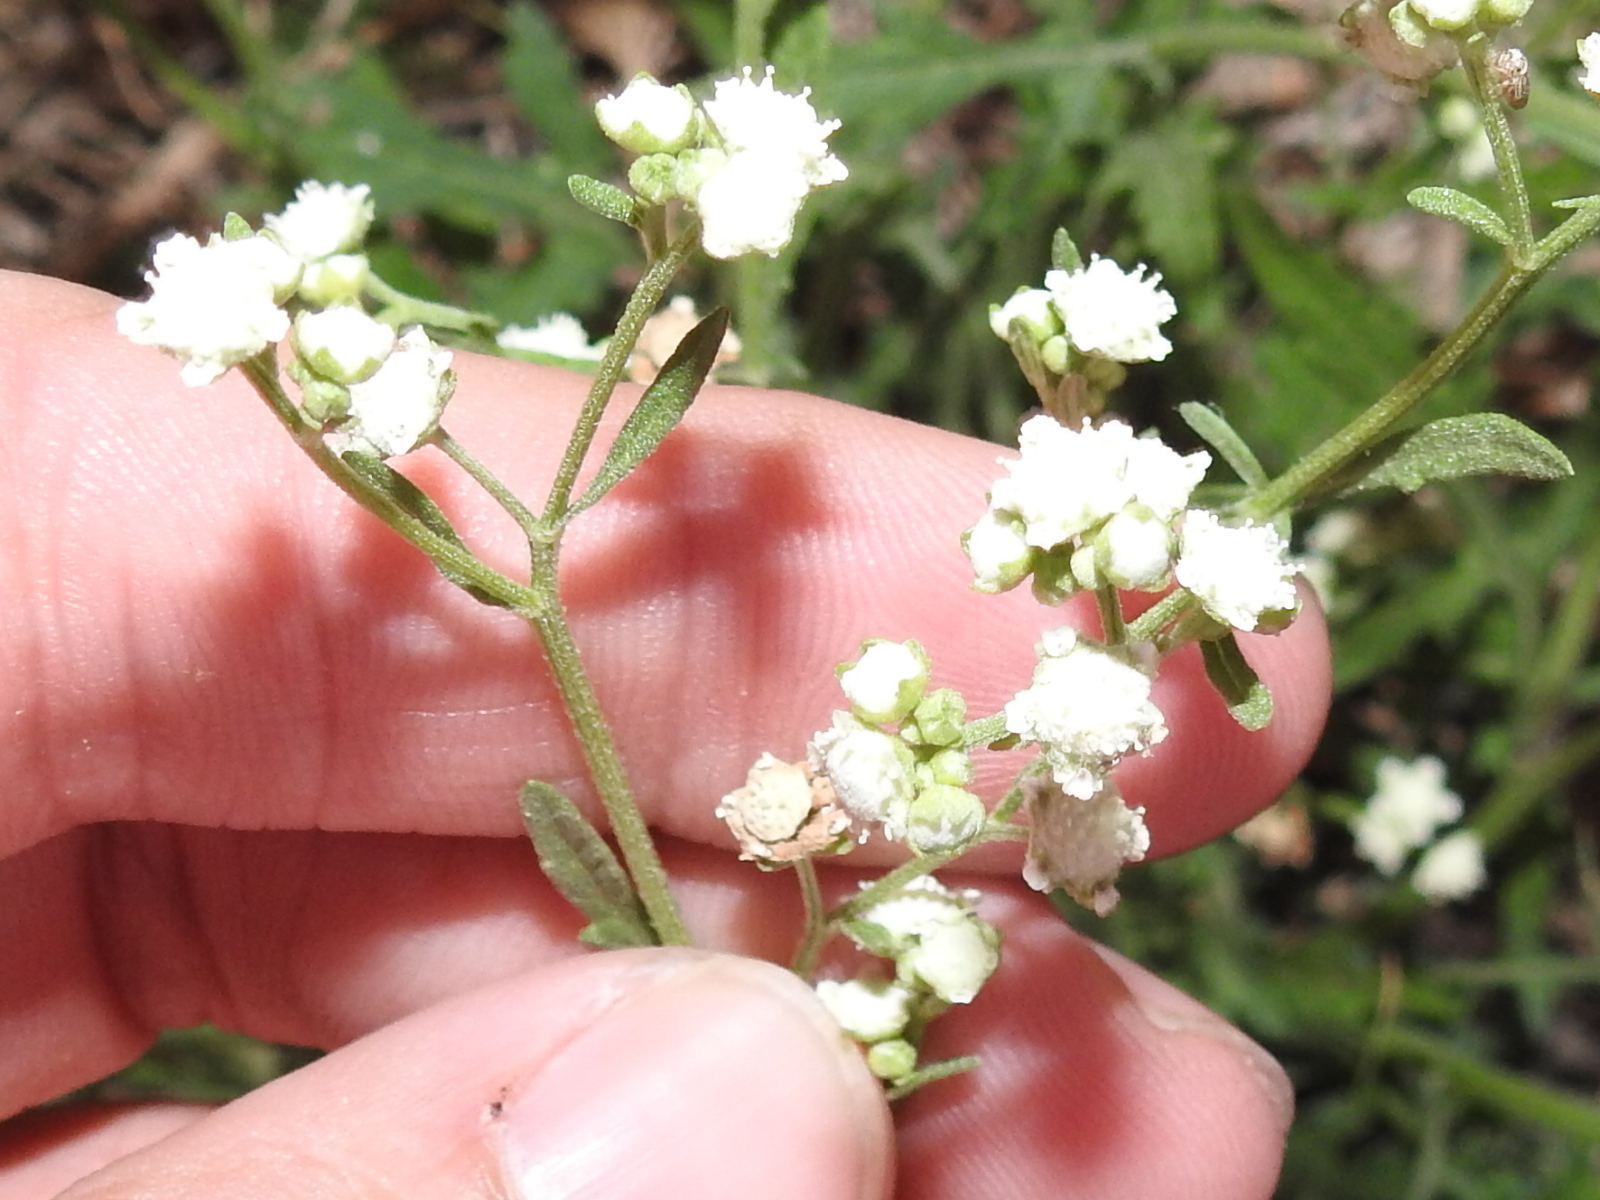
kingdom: Plantae
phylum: Tracheophyta
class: Magnoliopsida
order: Asterales
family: Asteraceae
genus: Parthenium
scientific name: Parthenium hysterophorus
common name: Santa maria feverfew
